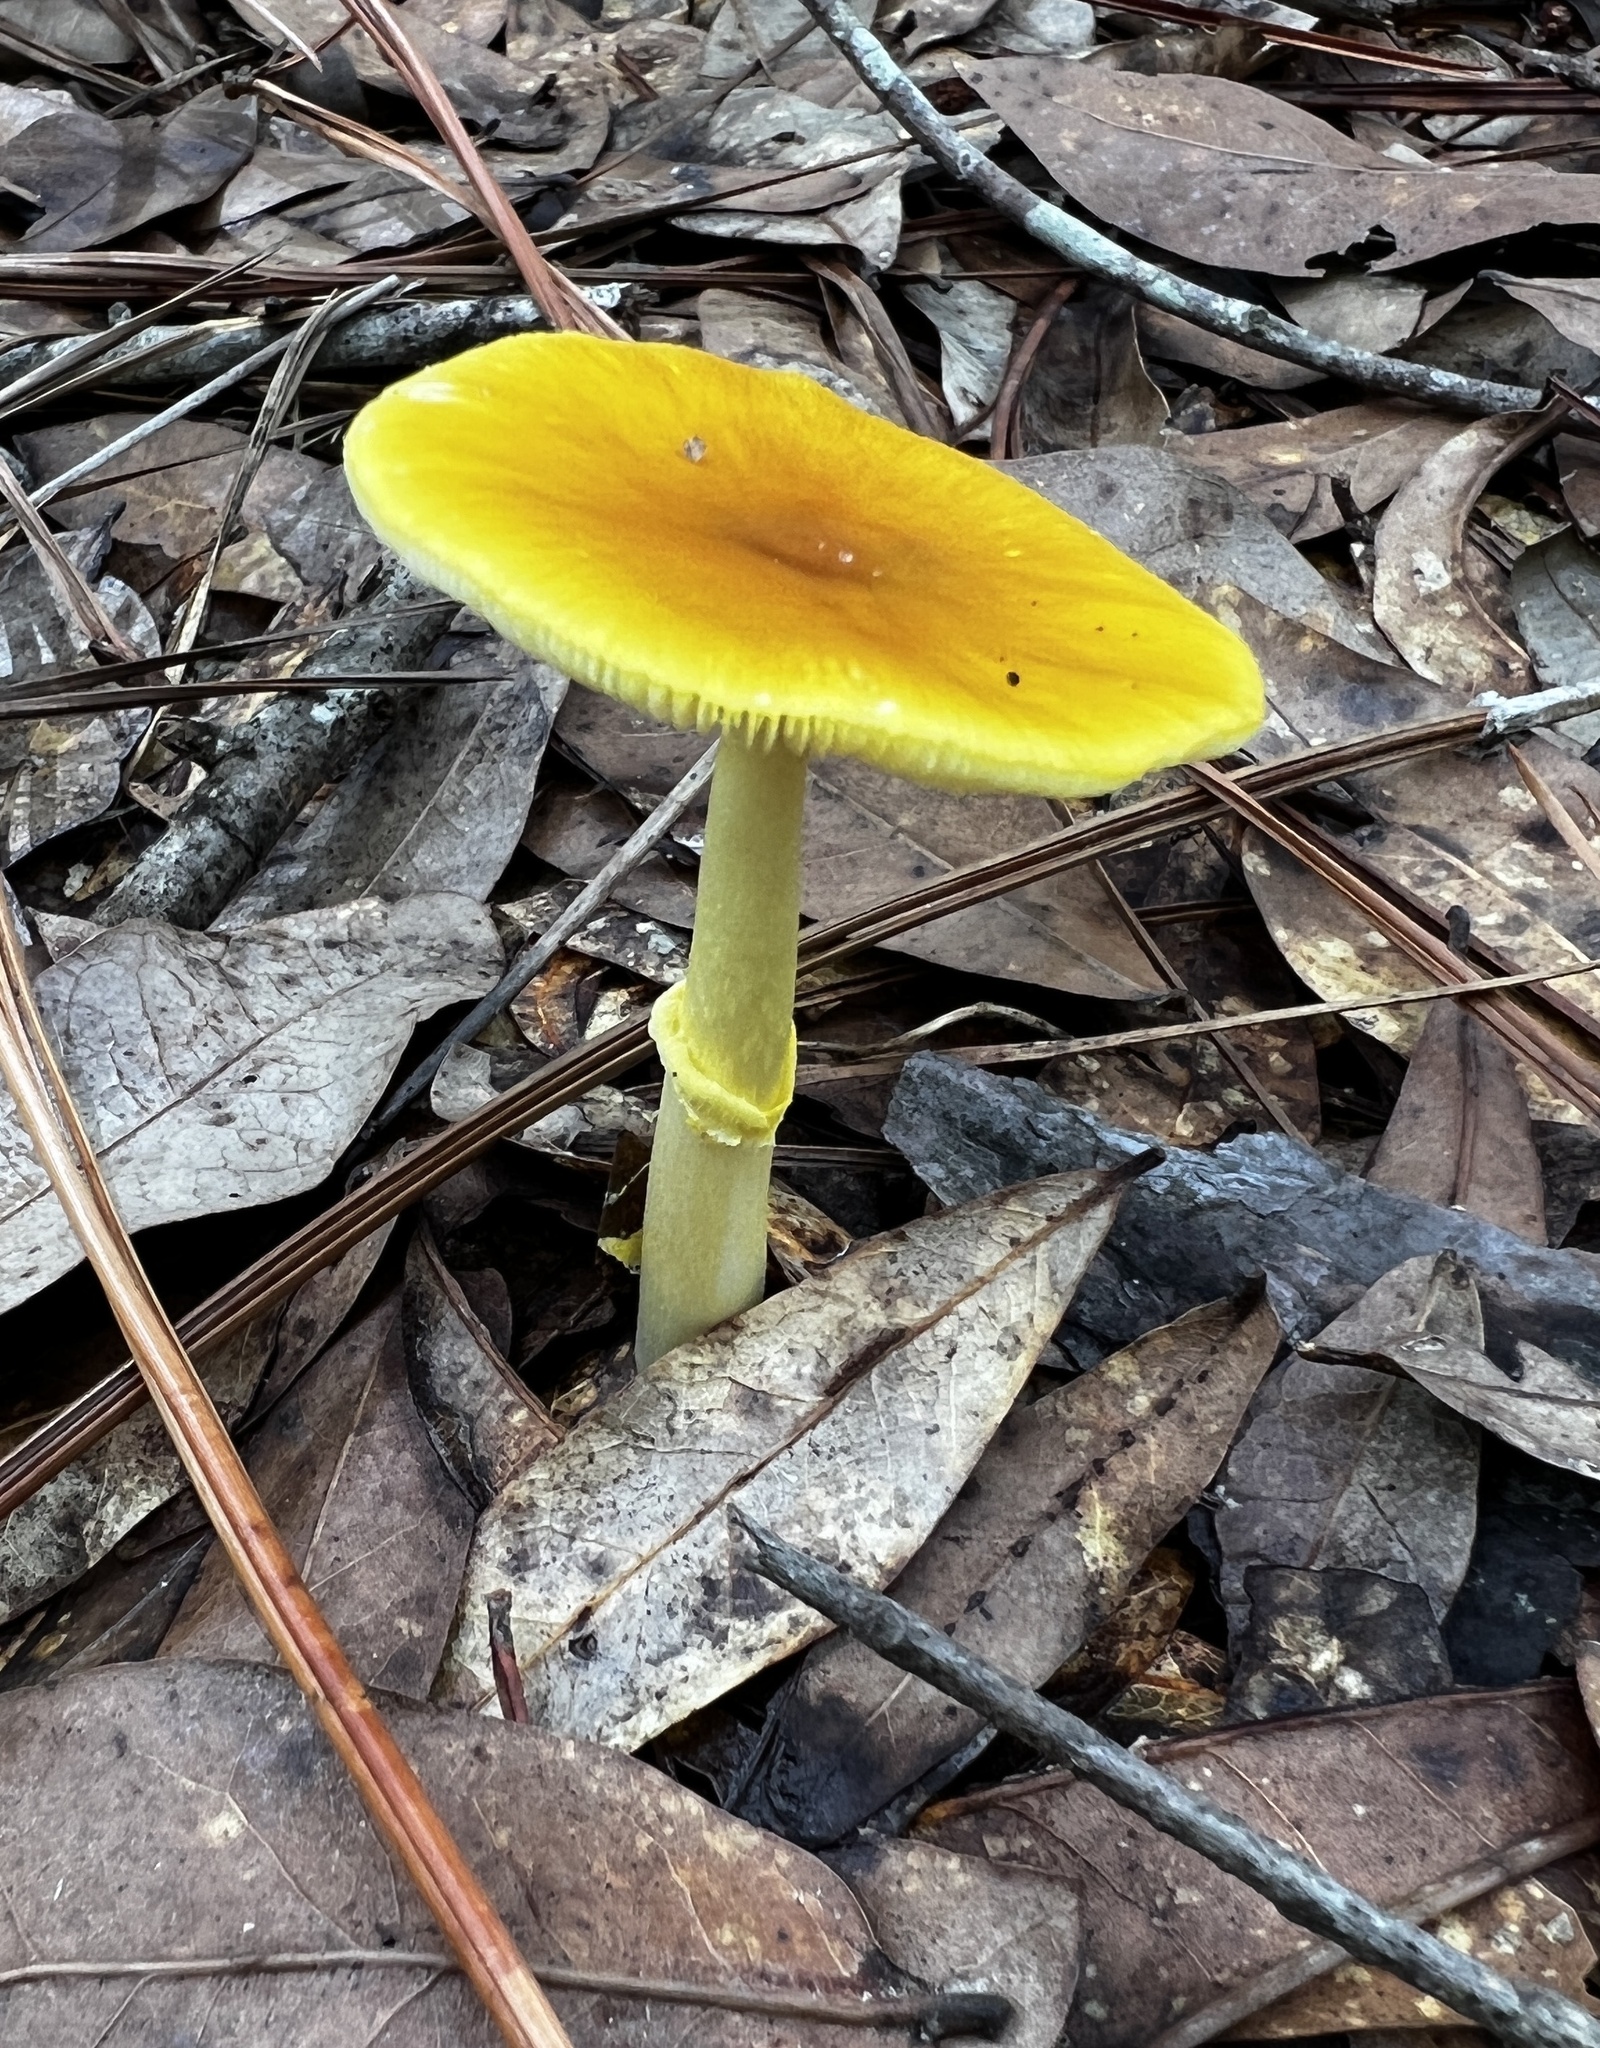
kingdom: Fungi
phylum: Basidiomycota
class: Agaricomycetes
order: Agaricales
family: Amanitaceae
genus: Amanita
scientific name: Amanita flavoconia
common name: Yellow patches
